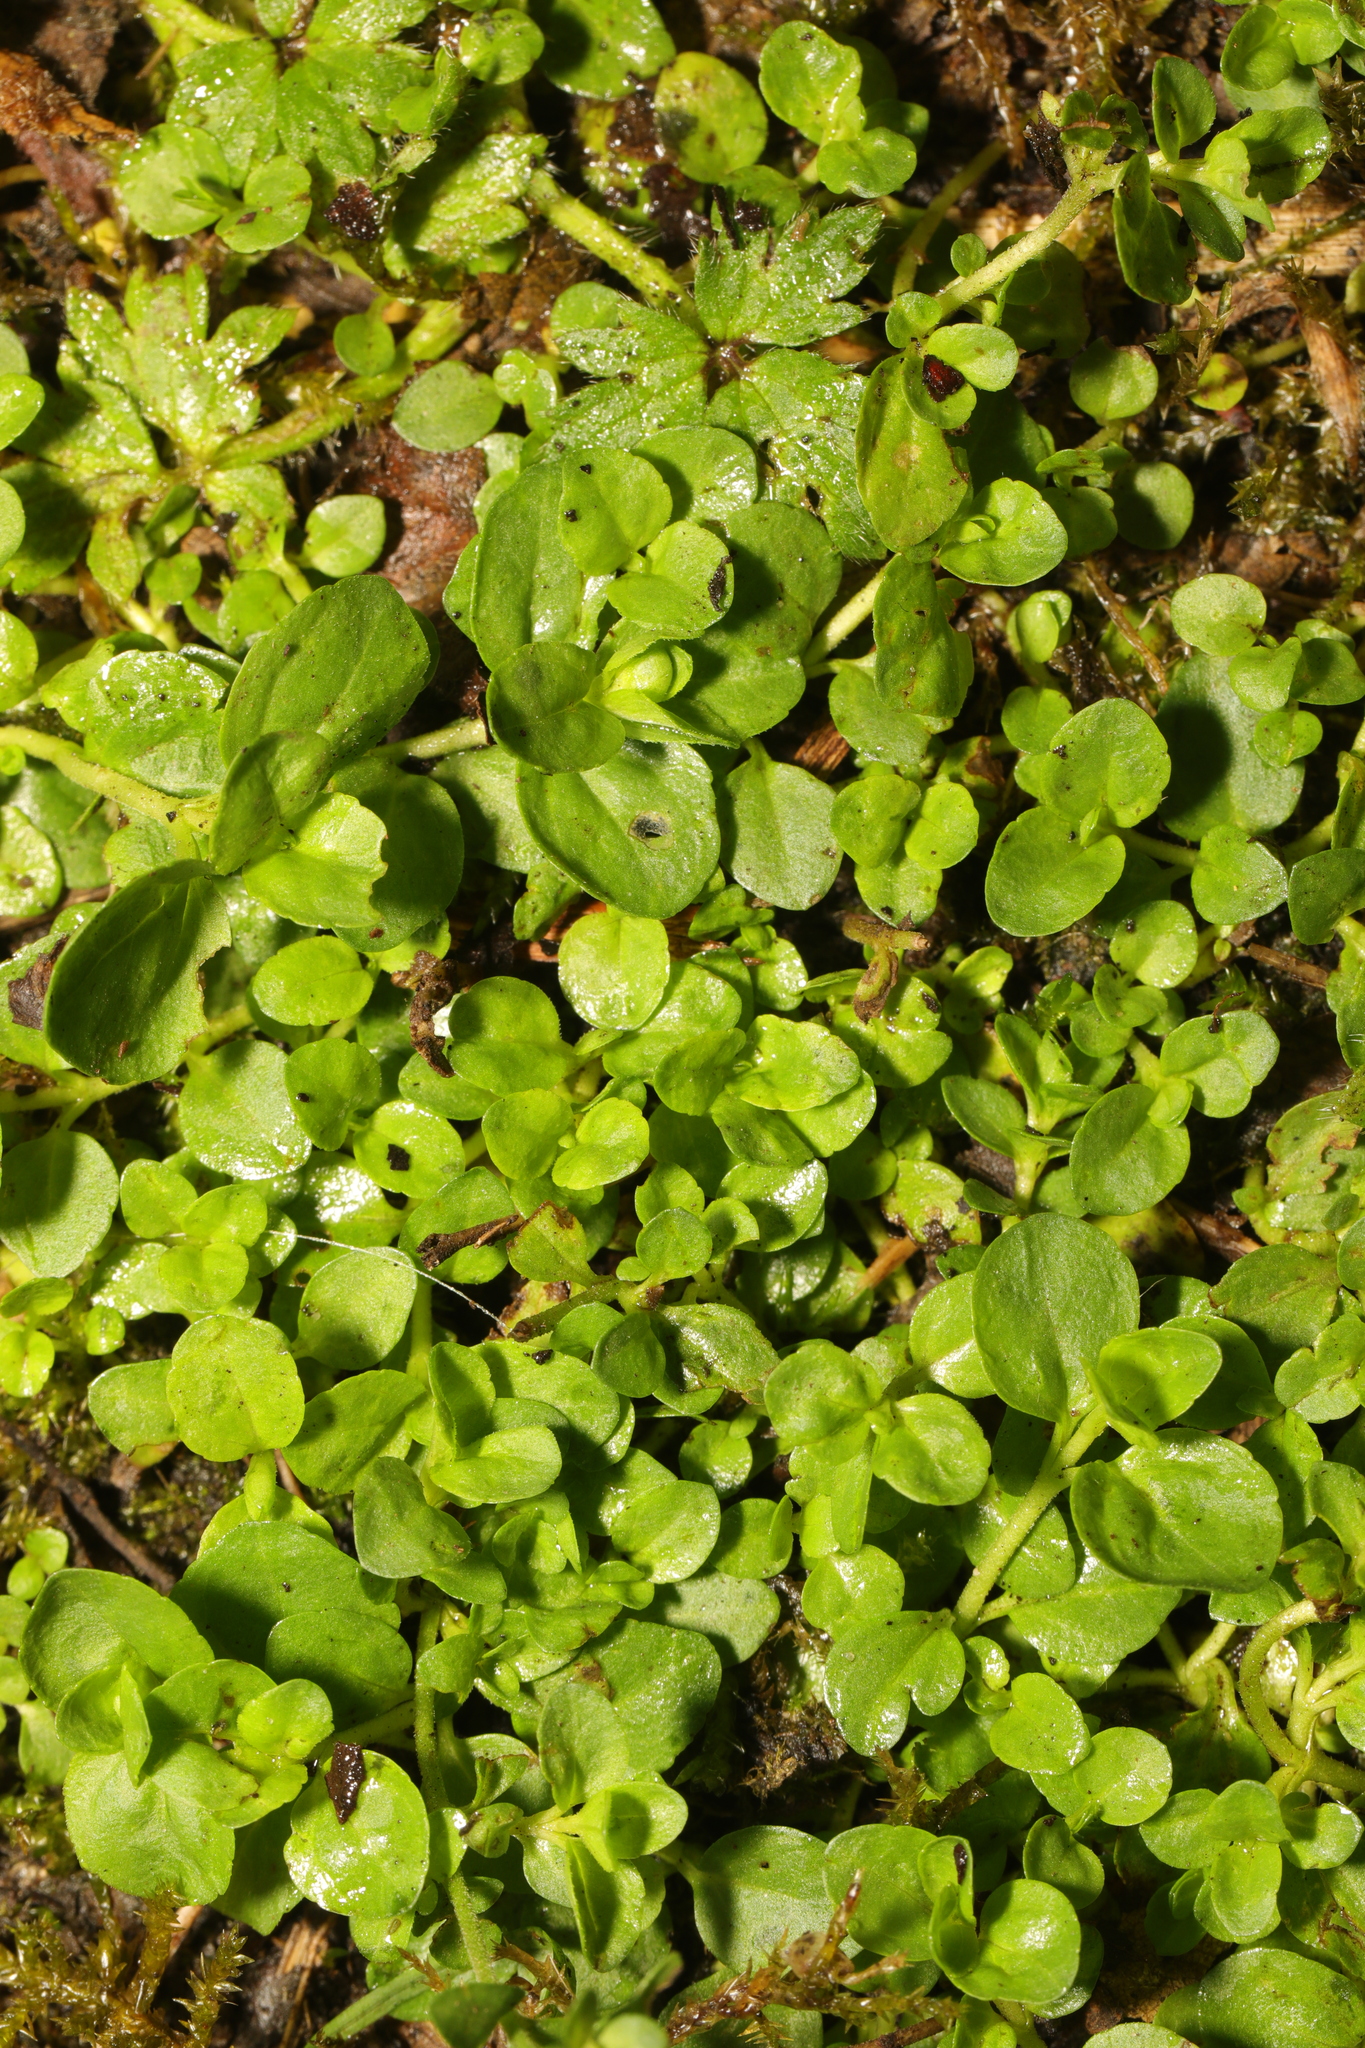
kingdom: Plantae
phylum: Tracheophyta
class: Magnoliopsida
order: Lamiales
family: Plantaginaceae
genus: Veronica
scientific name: Veronica serpyllifolia
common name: Thyme-leaved speedwell
